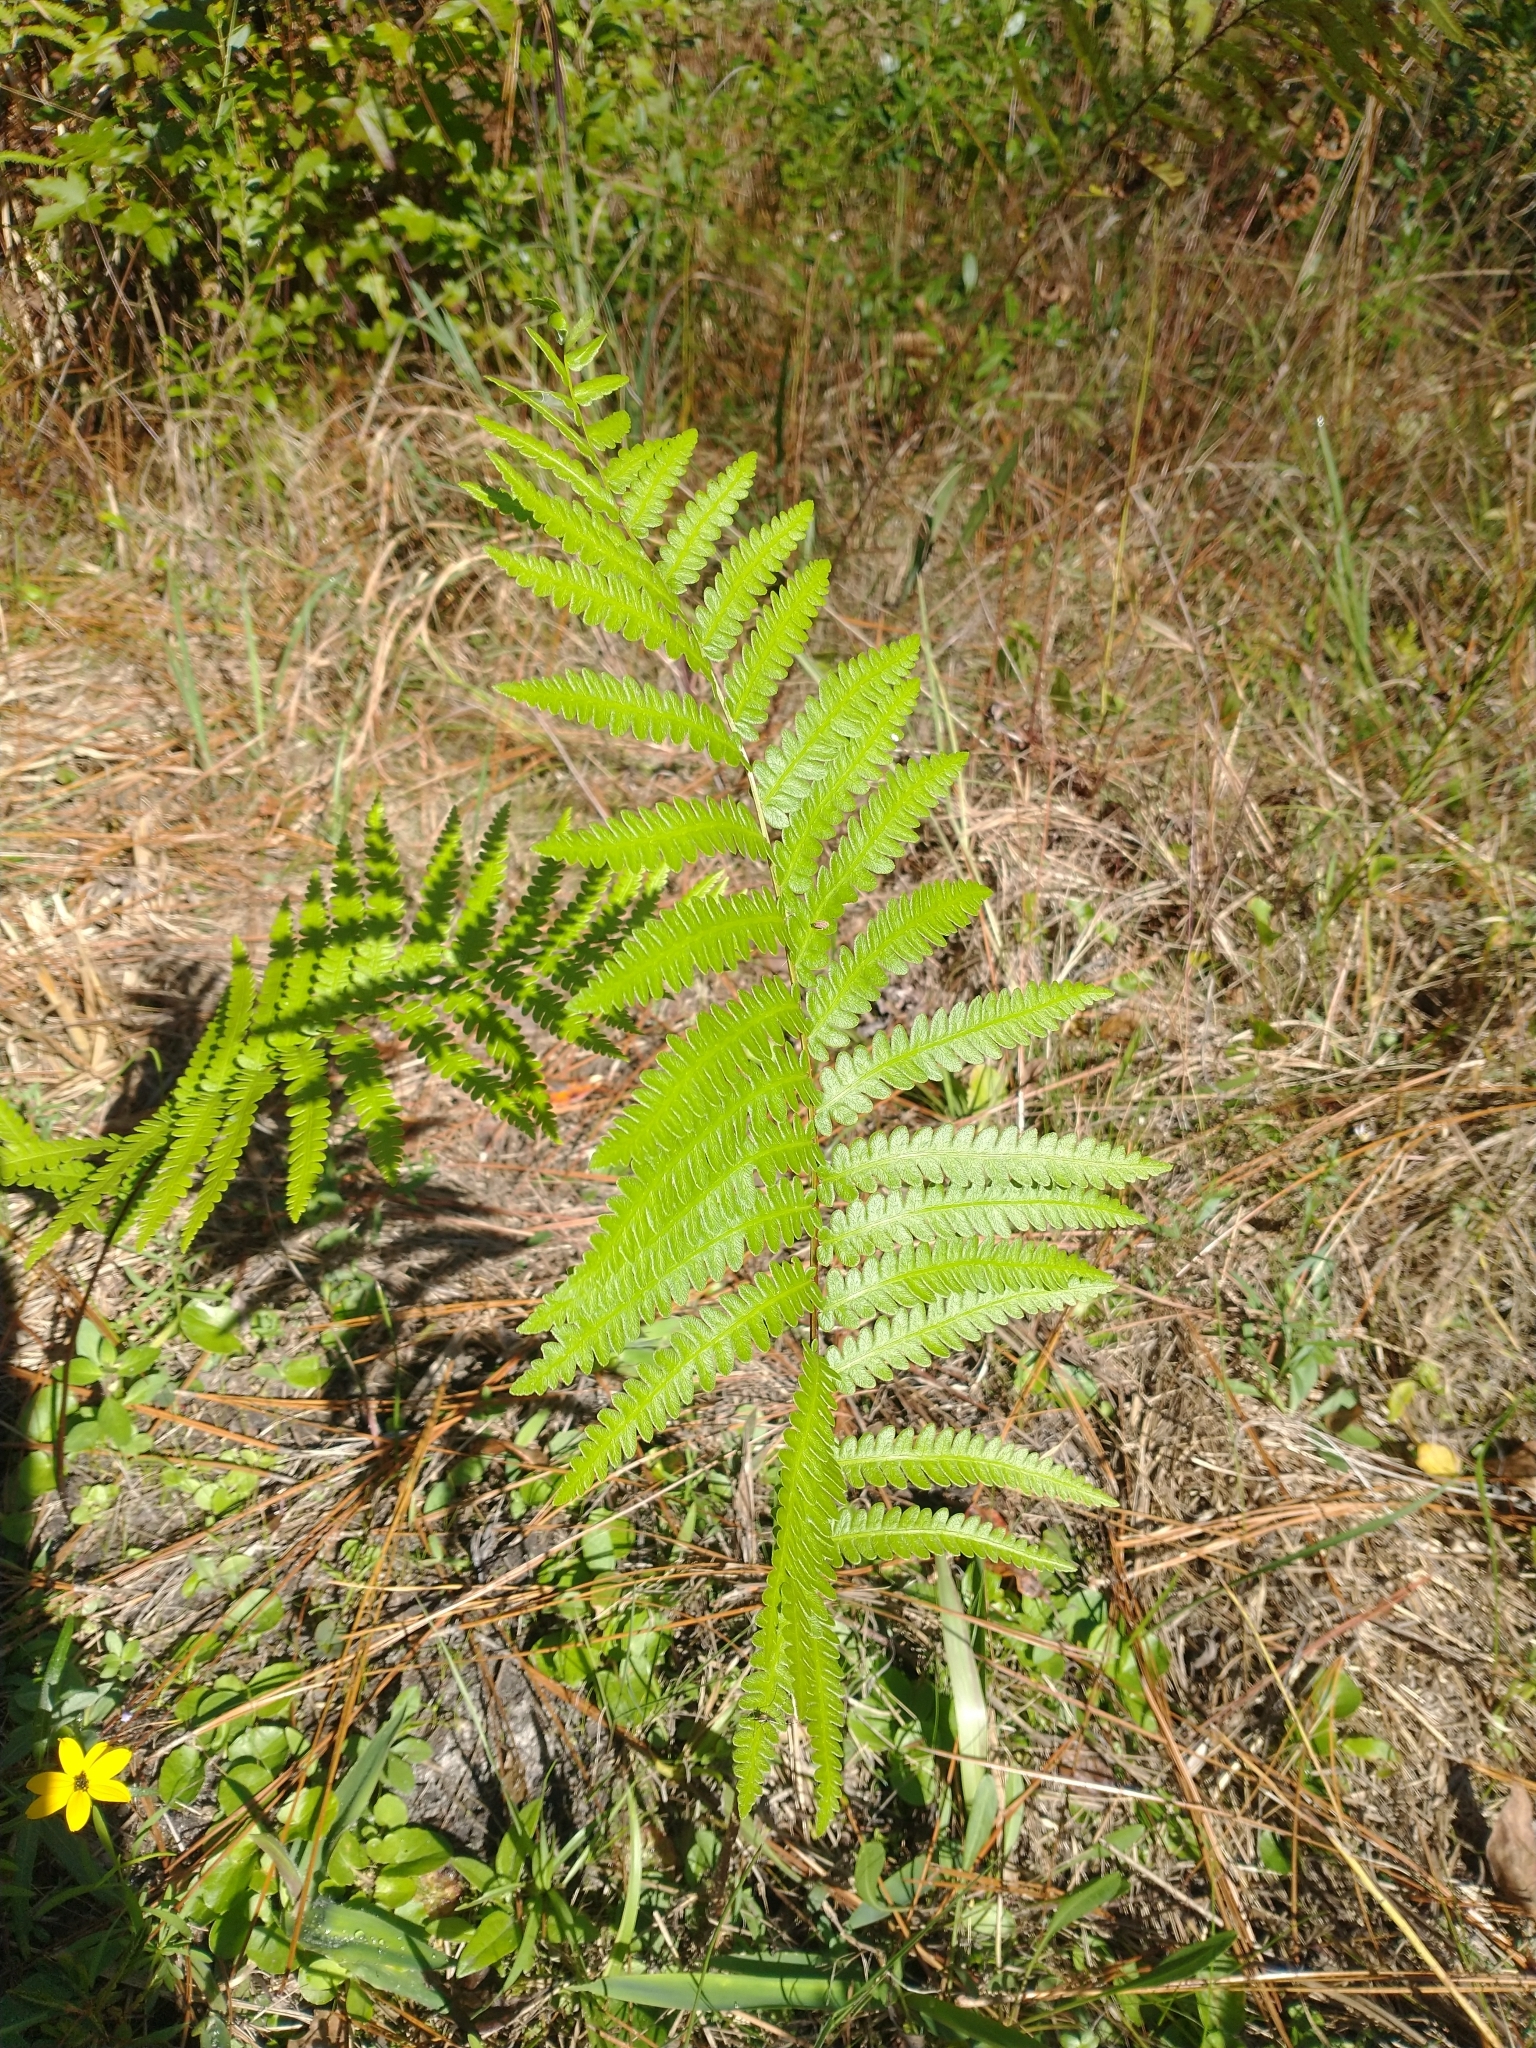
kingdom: Plantae
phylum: Tracheophyta
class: Polypodiopsida
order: Polypodiales
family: Blechnaceae
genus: Anchistea
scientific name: Anchistea virginica
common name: Virginia chain fern
